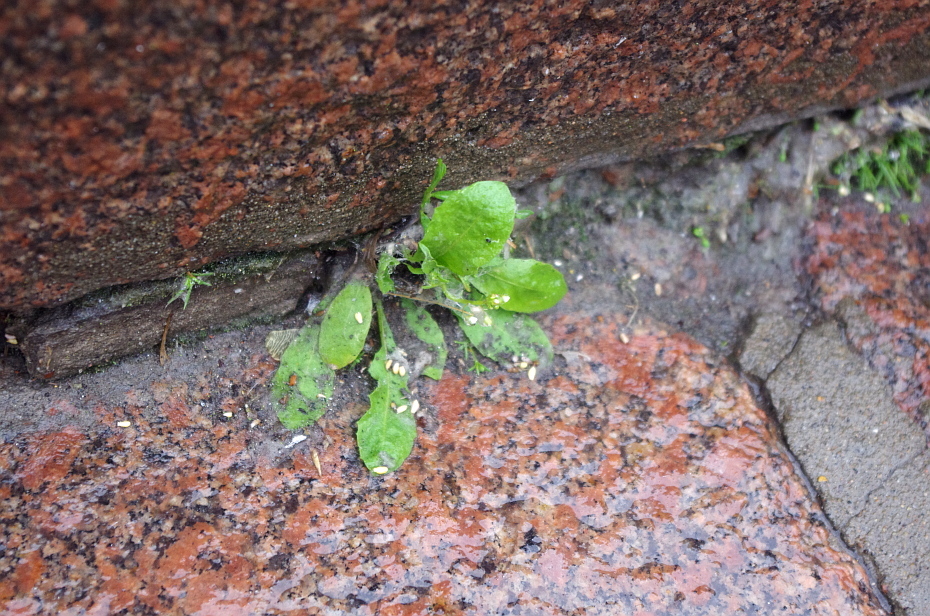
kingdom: Plantae
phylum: Tracheophyta
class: Magnoliopsida
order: Brassicales
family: Brassicaceae
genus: Capsella
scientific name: Capsella bursa-pastoris
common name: Shepherd's purse
